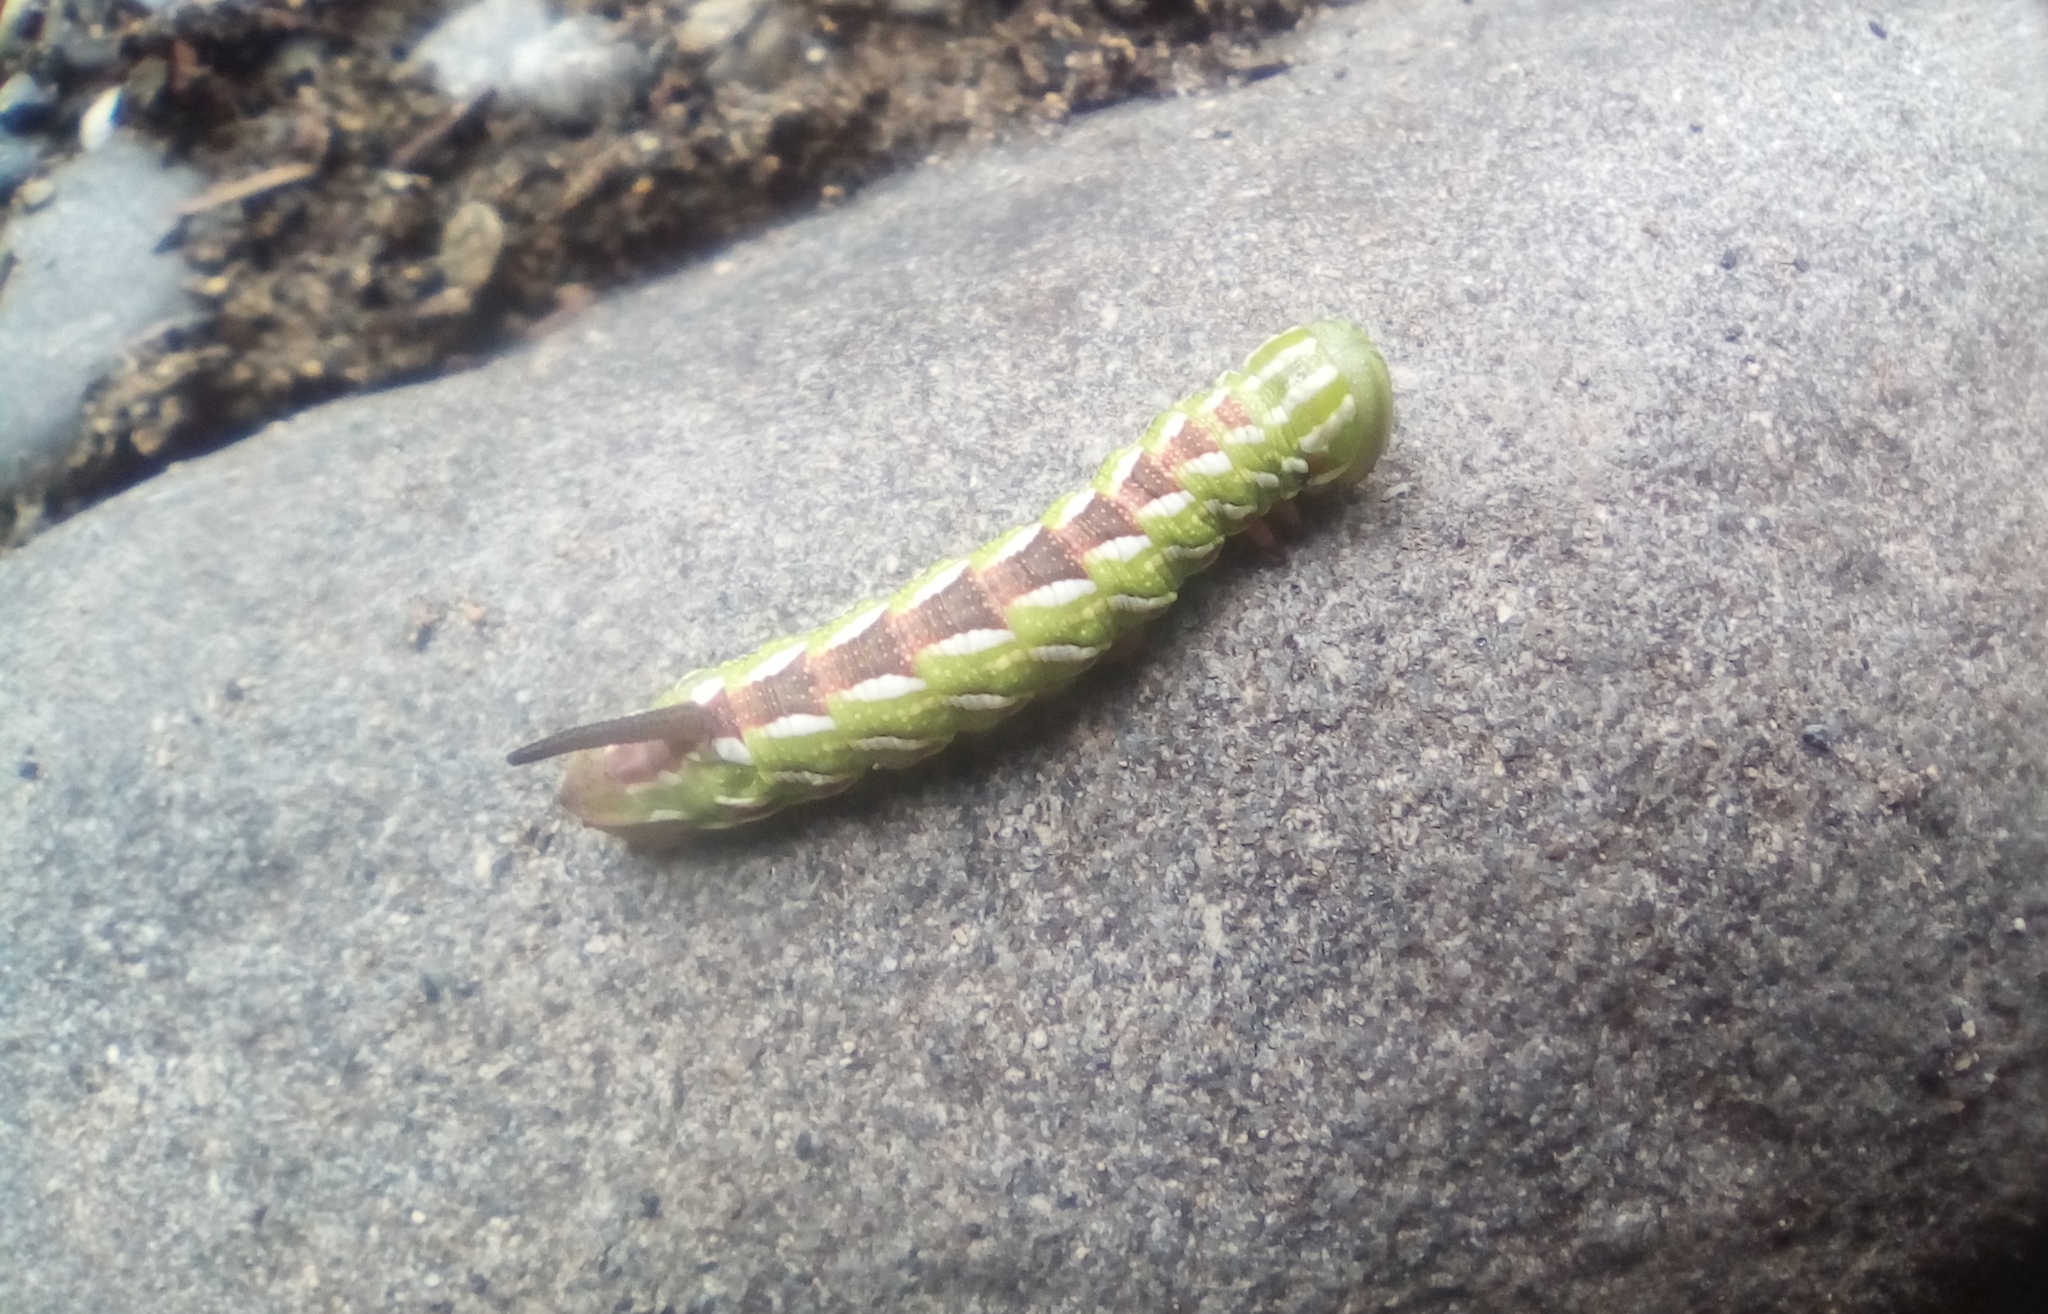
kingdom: Animalia
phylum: Arthropoda
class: Insecta
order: Lepidoptera
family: Sphingidae
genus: Isoparce
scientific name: Isoparce broui
